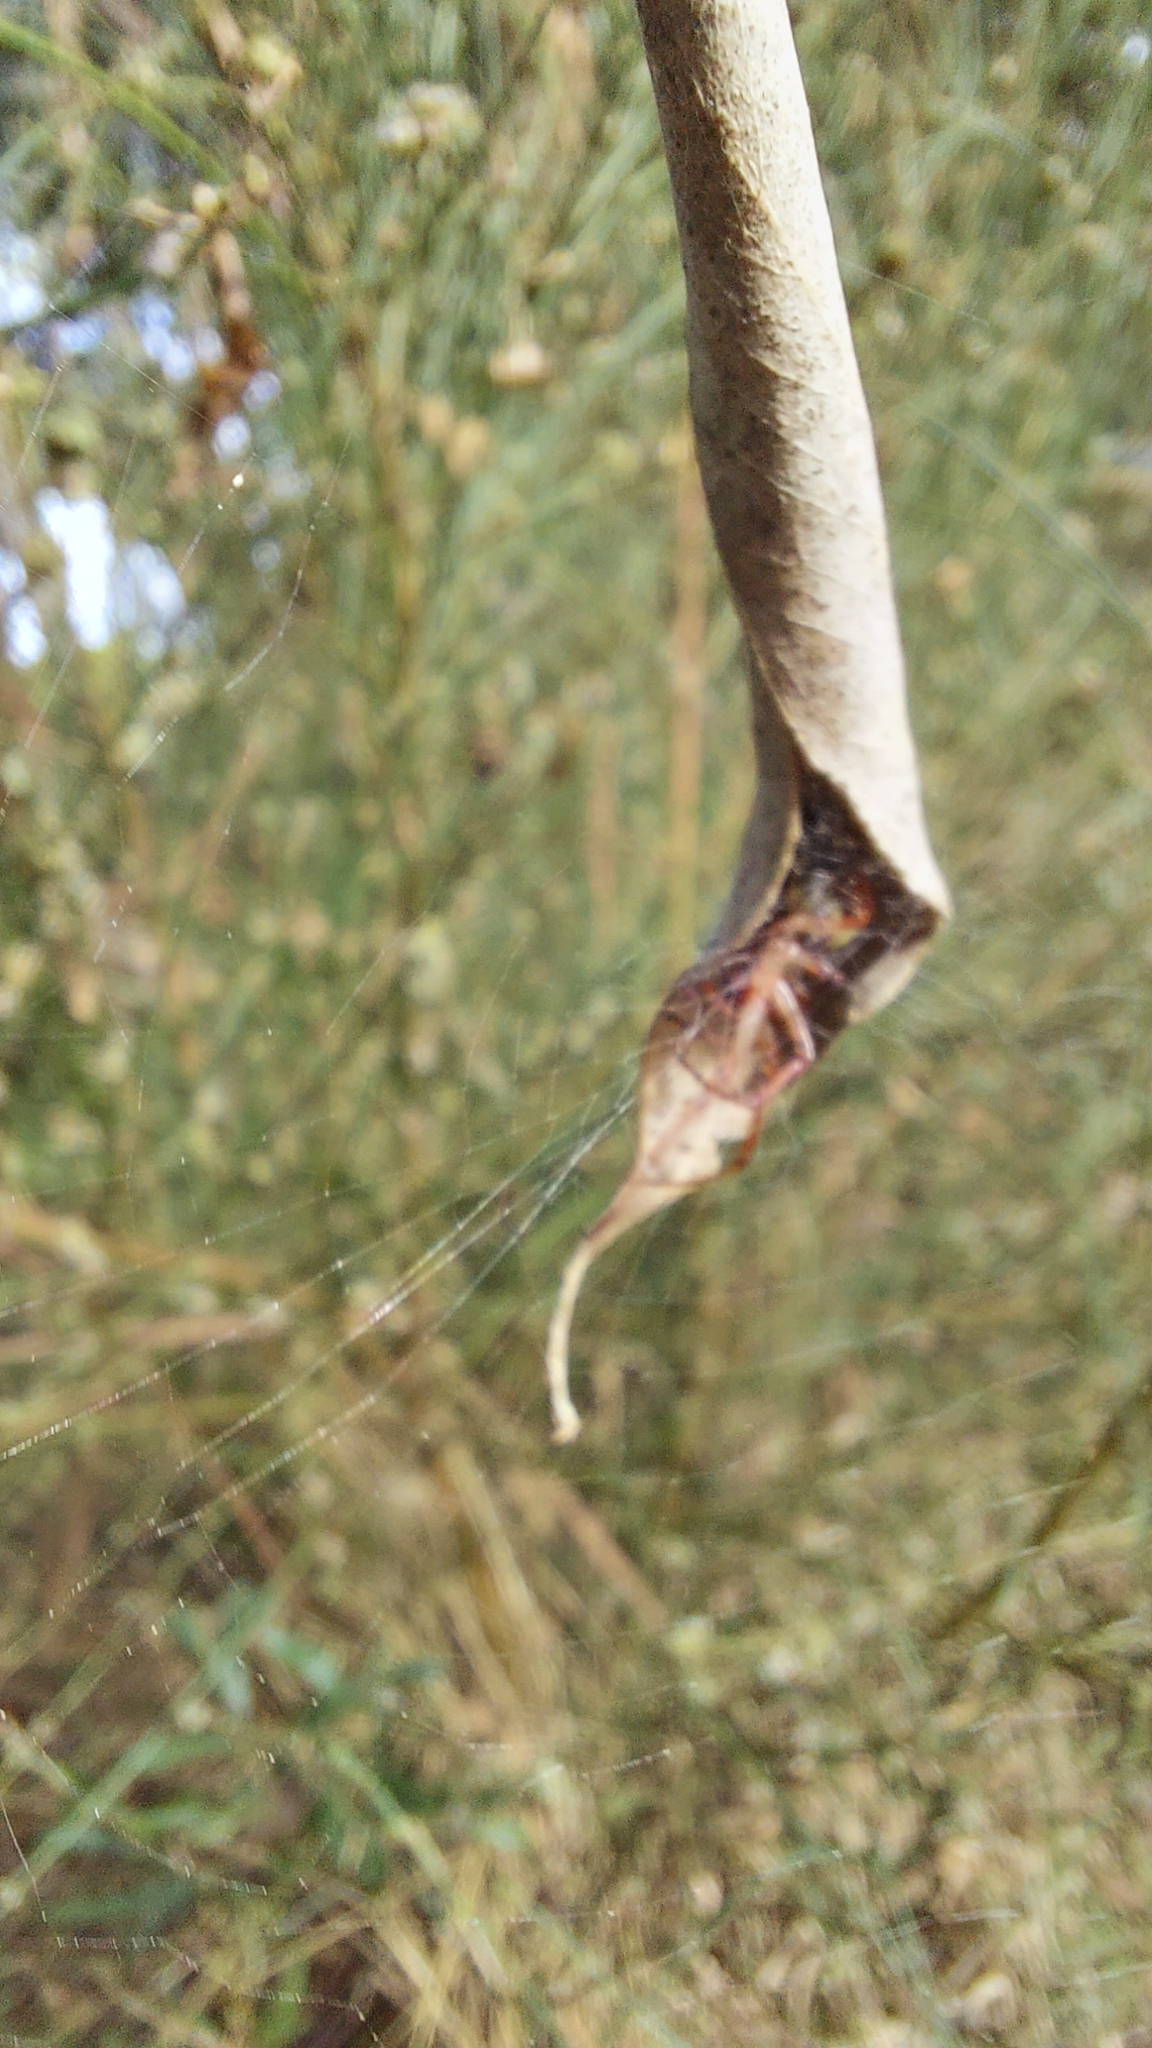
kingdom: Animalia
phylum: Arthropoda
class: Arachnida
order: Araneae
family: Araneidae
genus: Phonognatha
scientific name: Phonognatha graeffei
